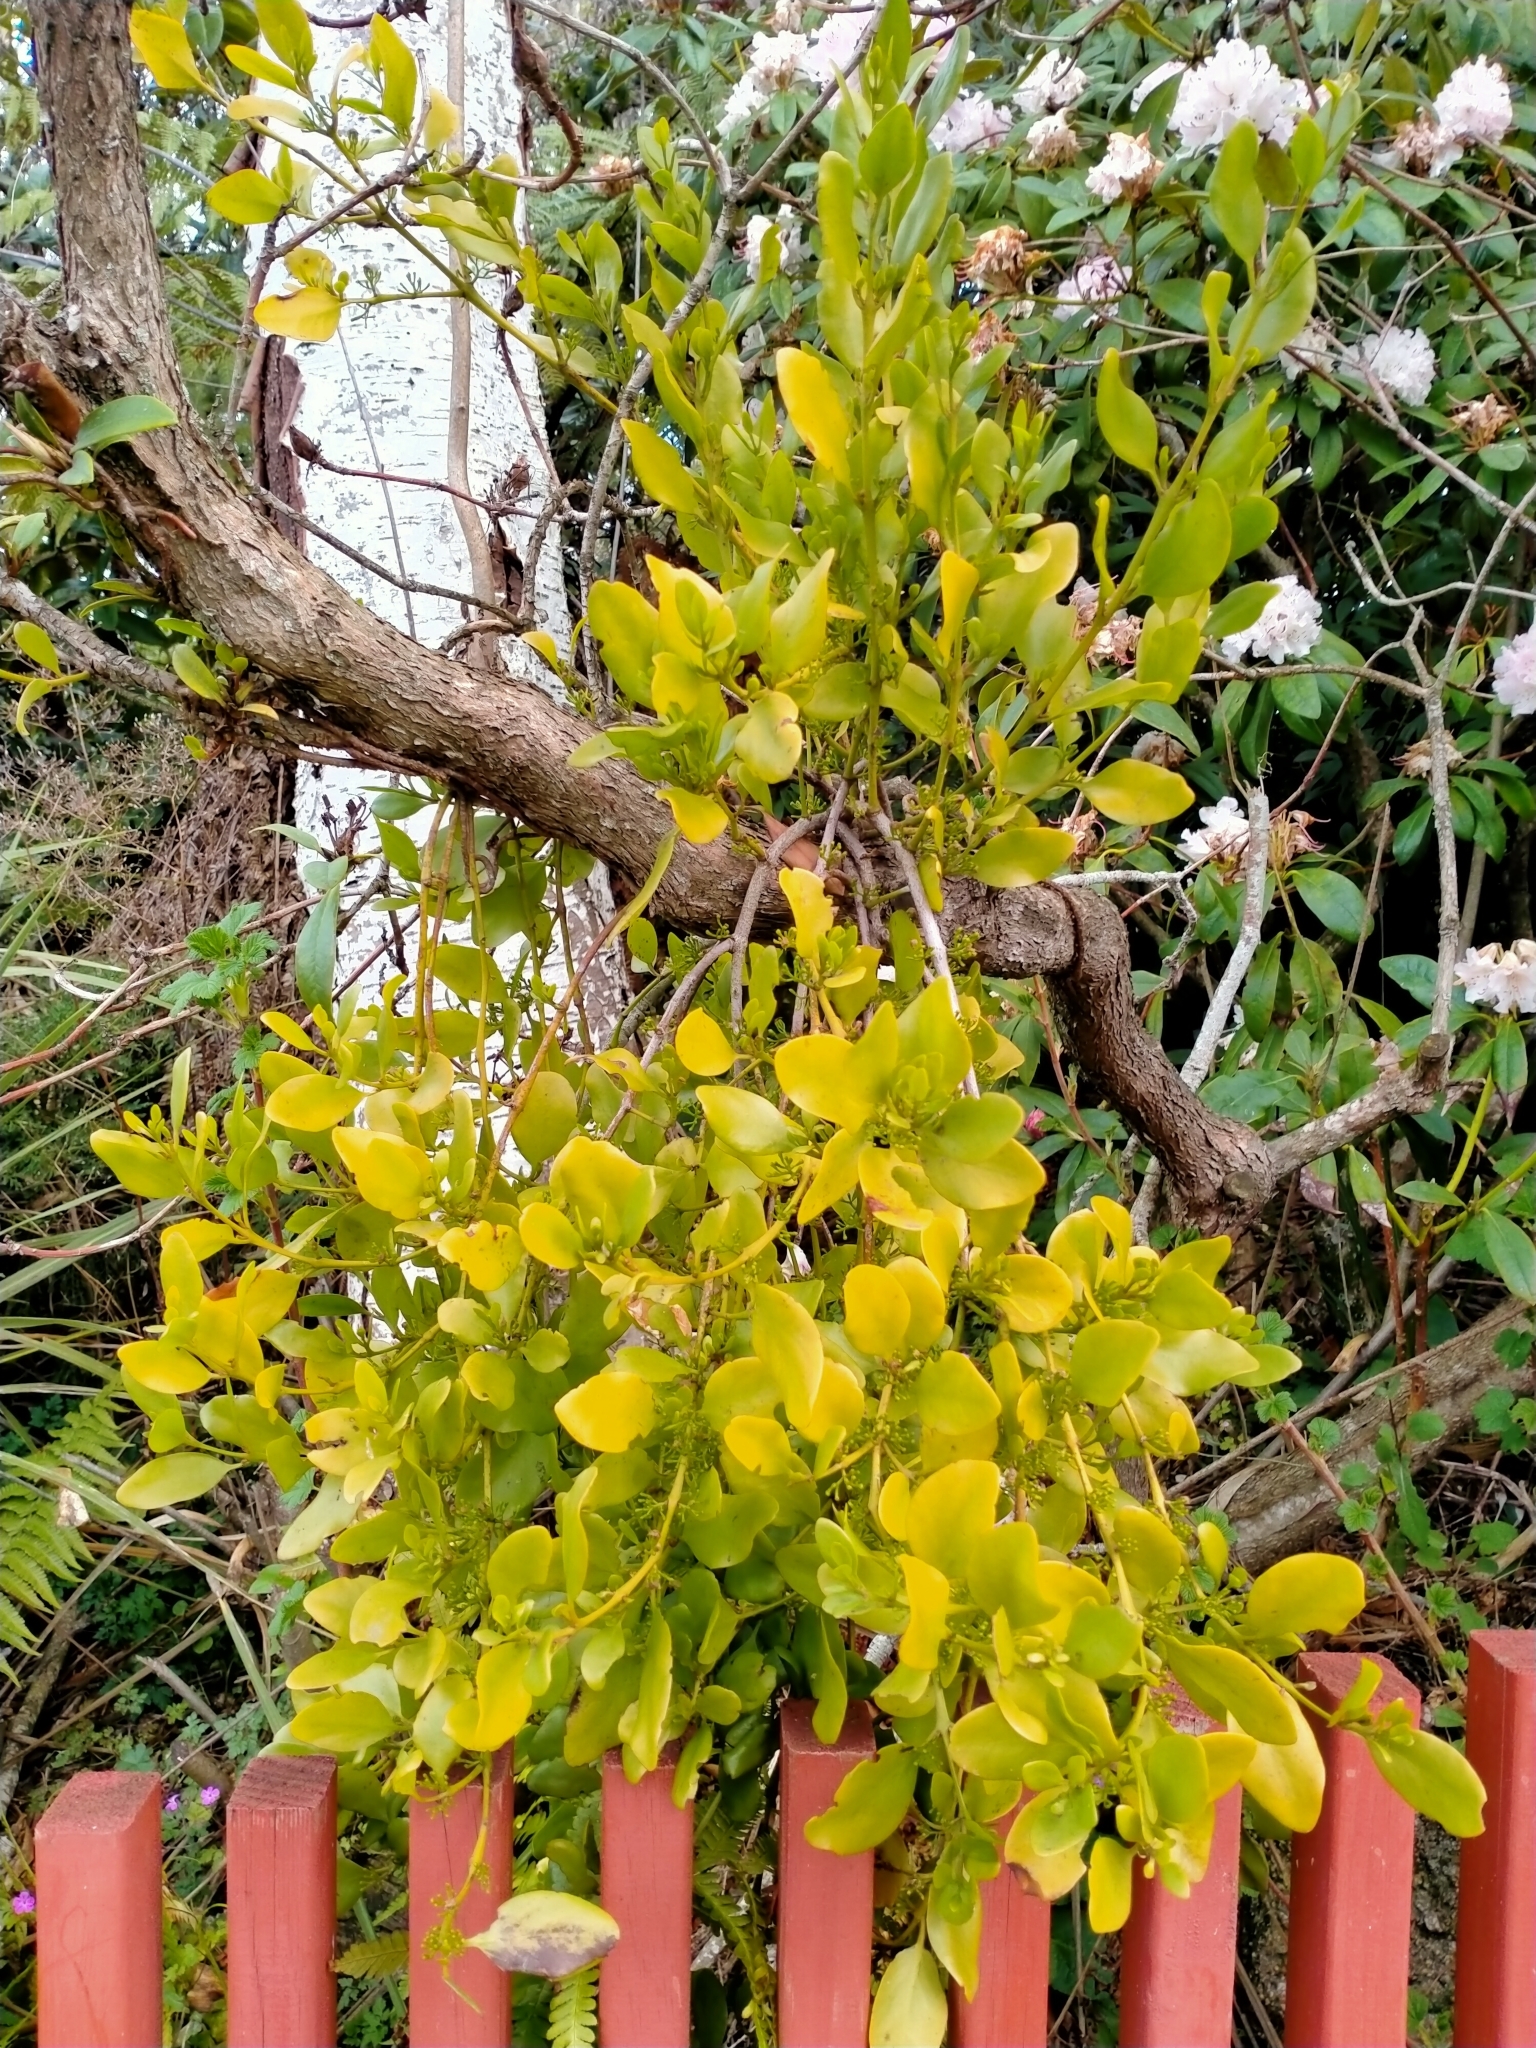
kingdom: Plantae
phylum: Tracheophyta
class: Magnoliopsida
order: Santalales
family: Loranthaceae
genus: Ileostylus
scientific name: Ileostylus micranthus
